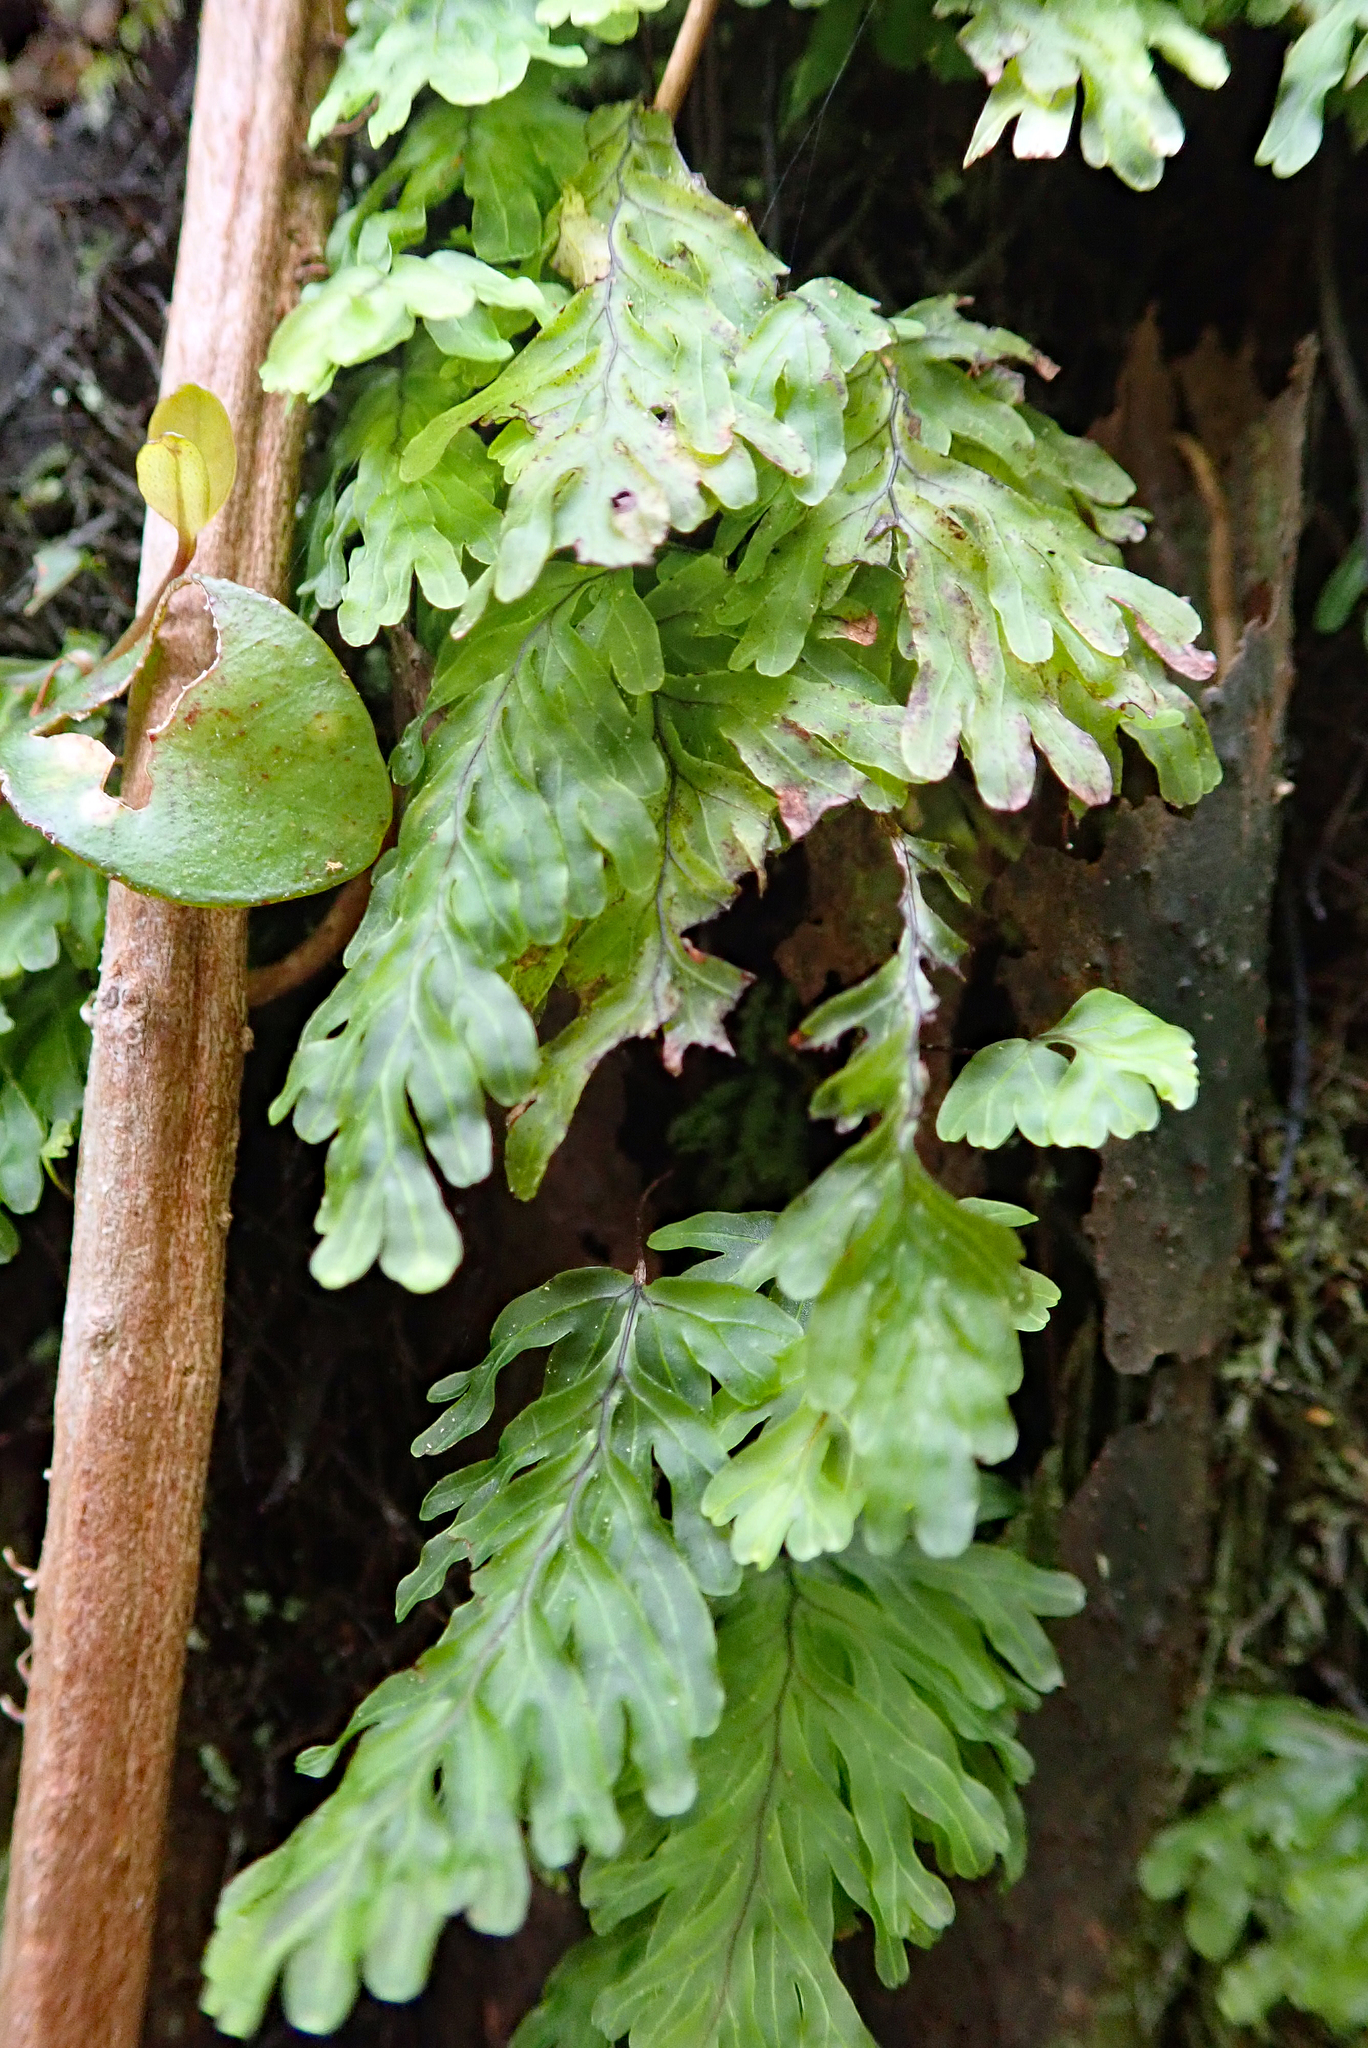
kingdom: Plantae
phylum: Tracheophyta
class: Polypodiopsida
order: Hymenophyllales
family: Hymenophyllaceae
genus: Hymenophyllum
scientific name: Hymenophyllum rarum
